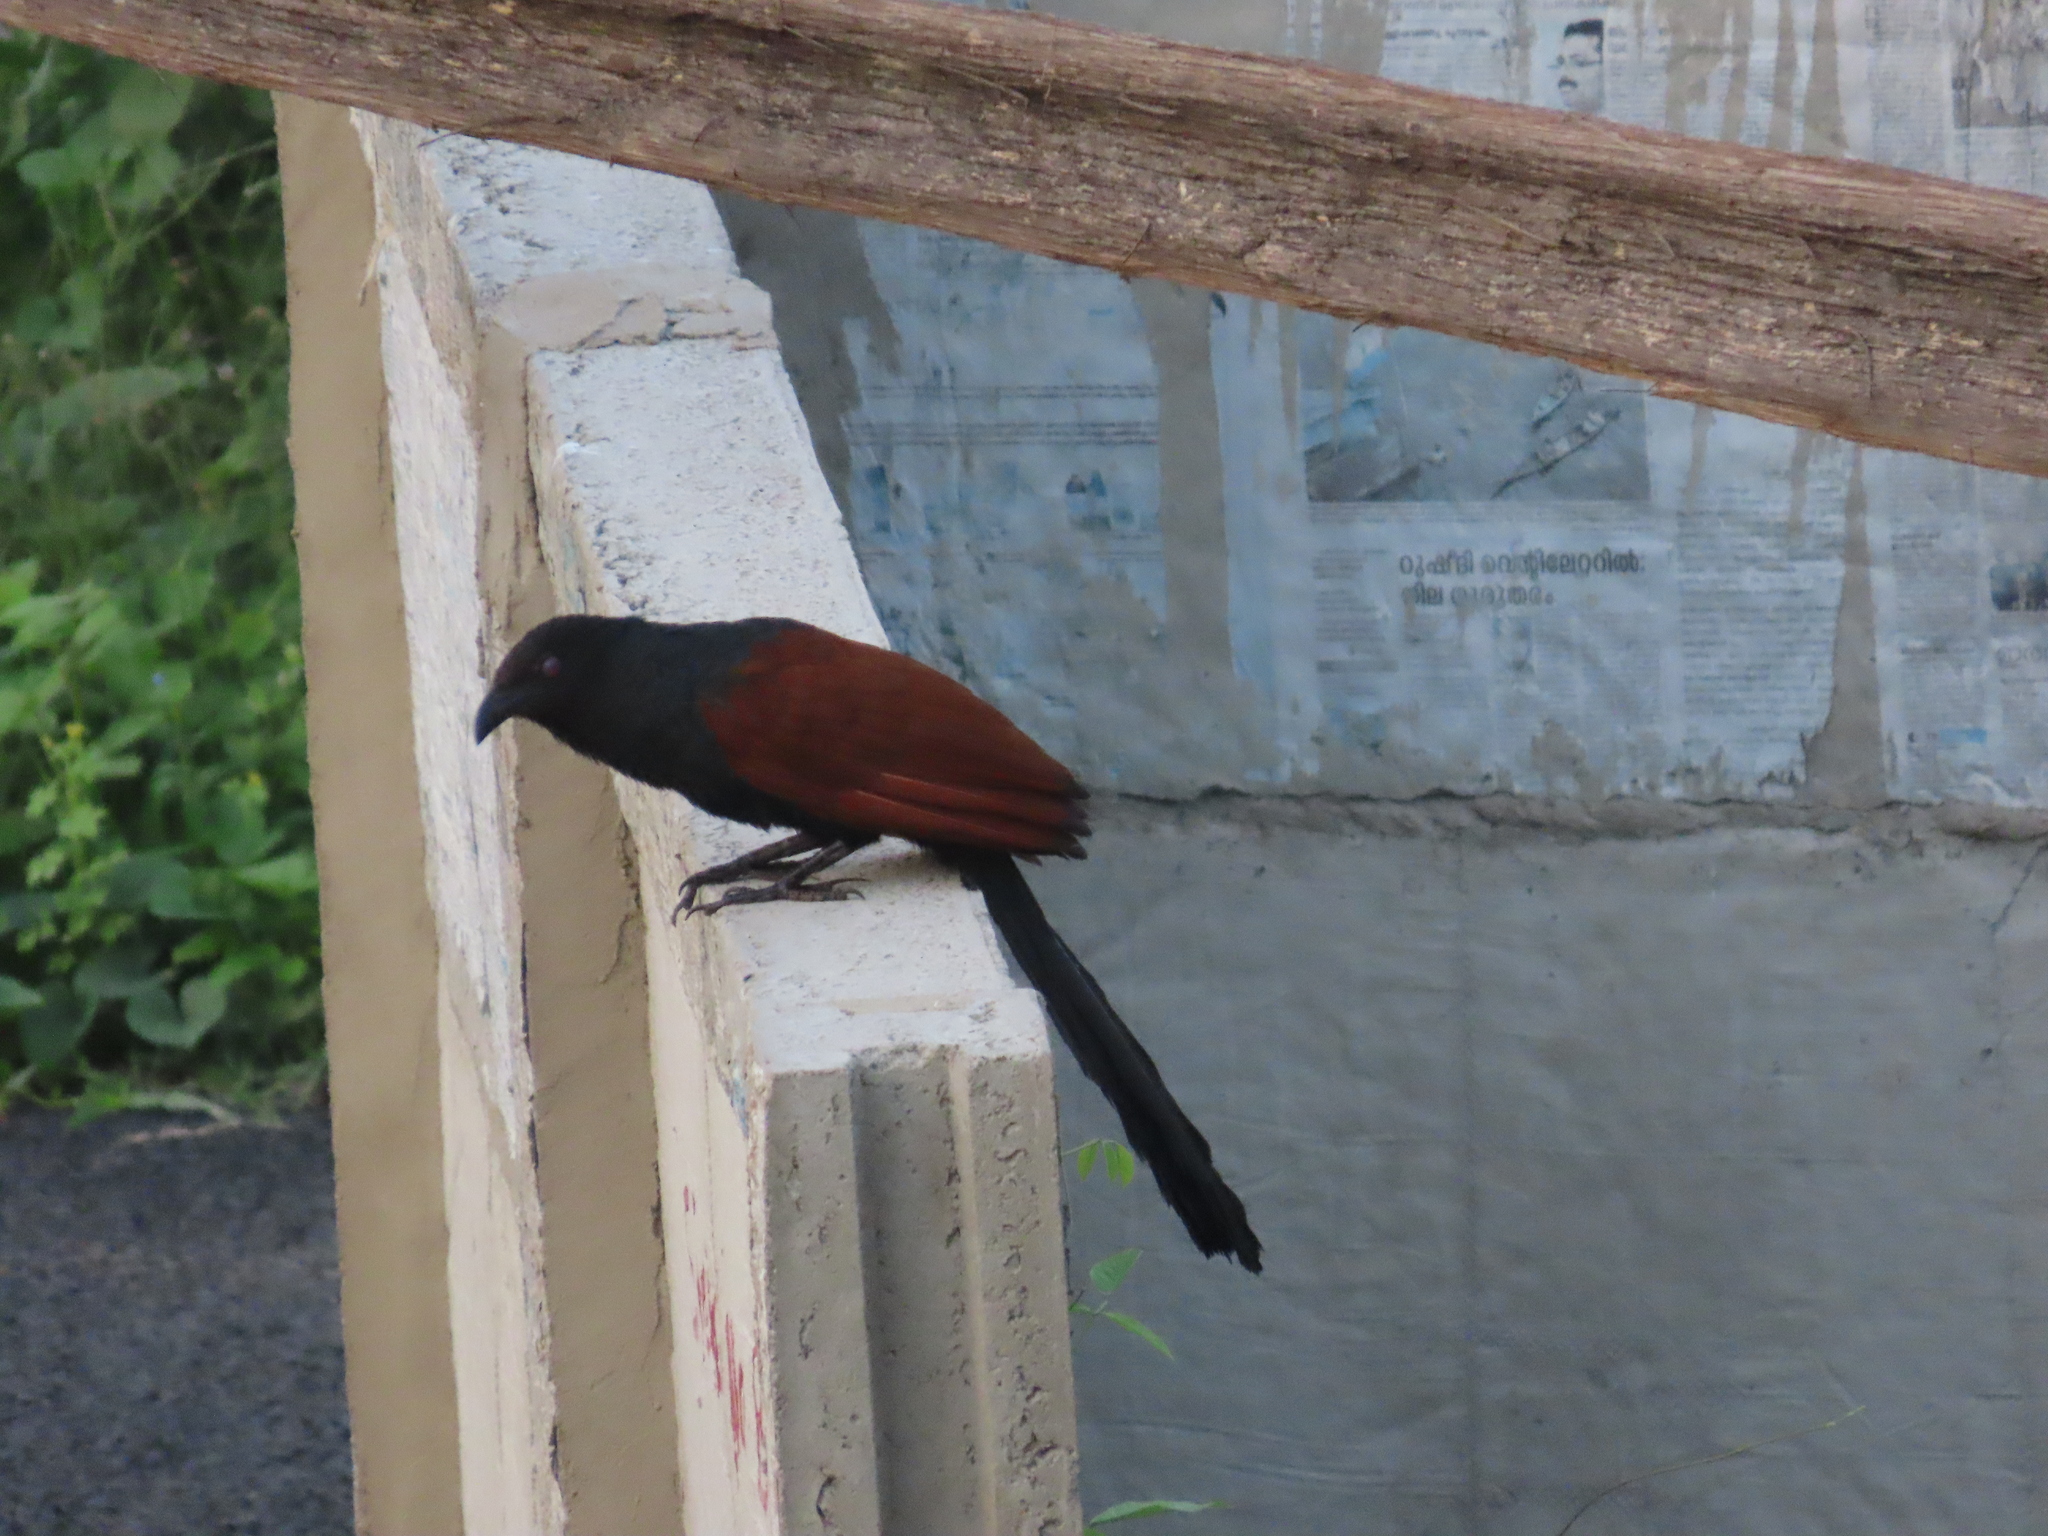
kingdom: Animalia
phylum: Chordata
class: Aves
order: Cuculiformes
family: Cuculidae
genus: Centropus
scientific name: Centropus sinensis
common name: Greater coucal
